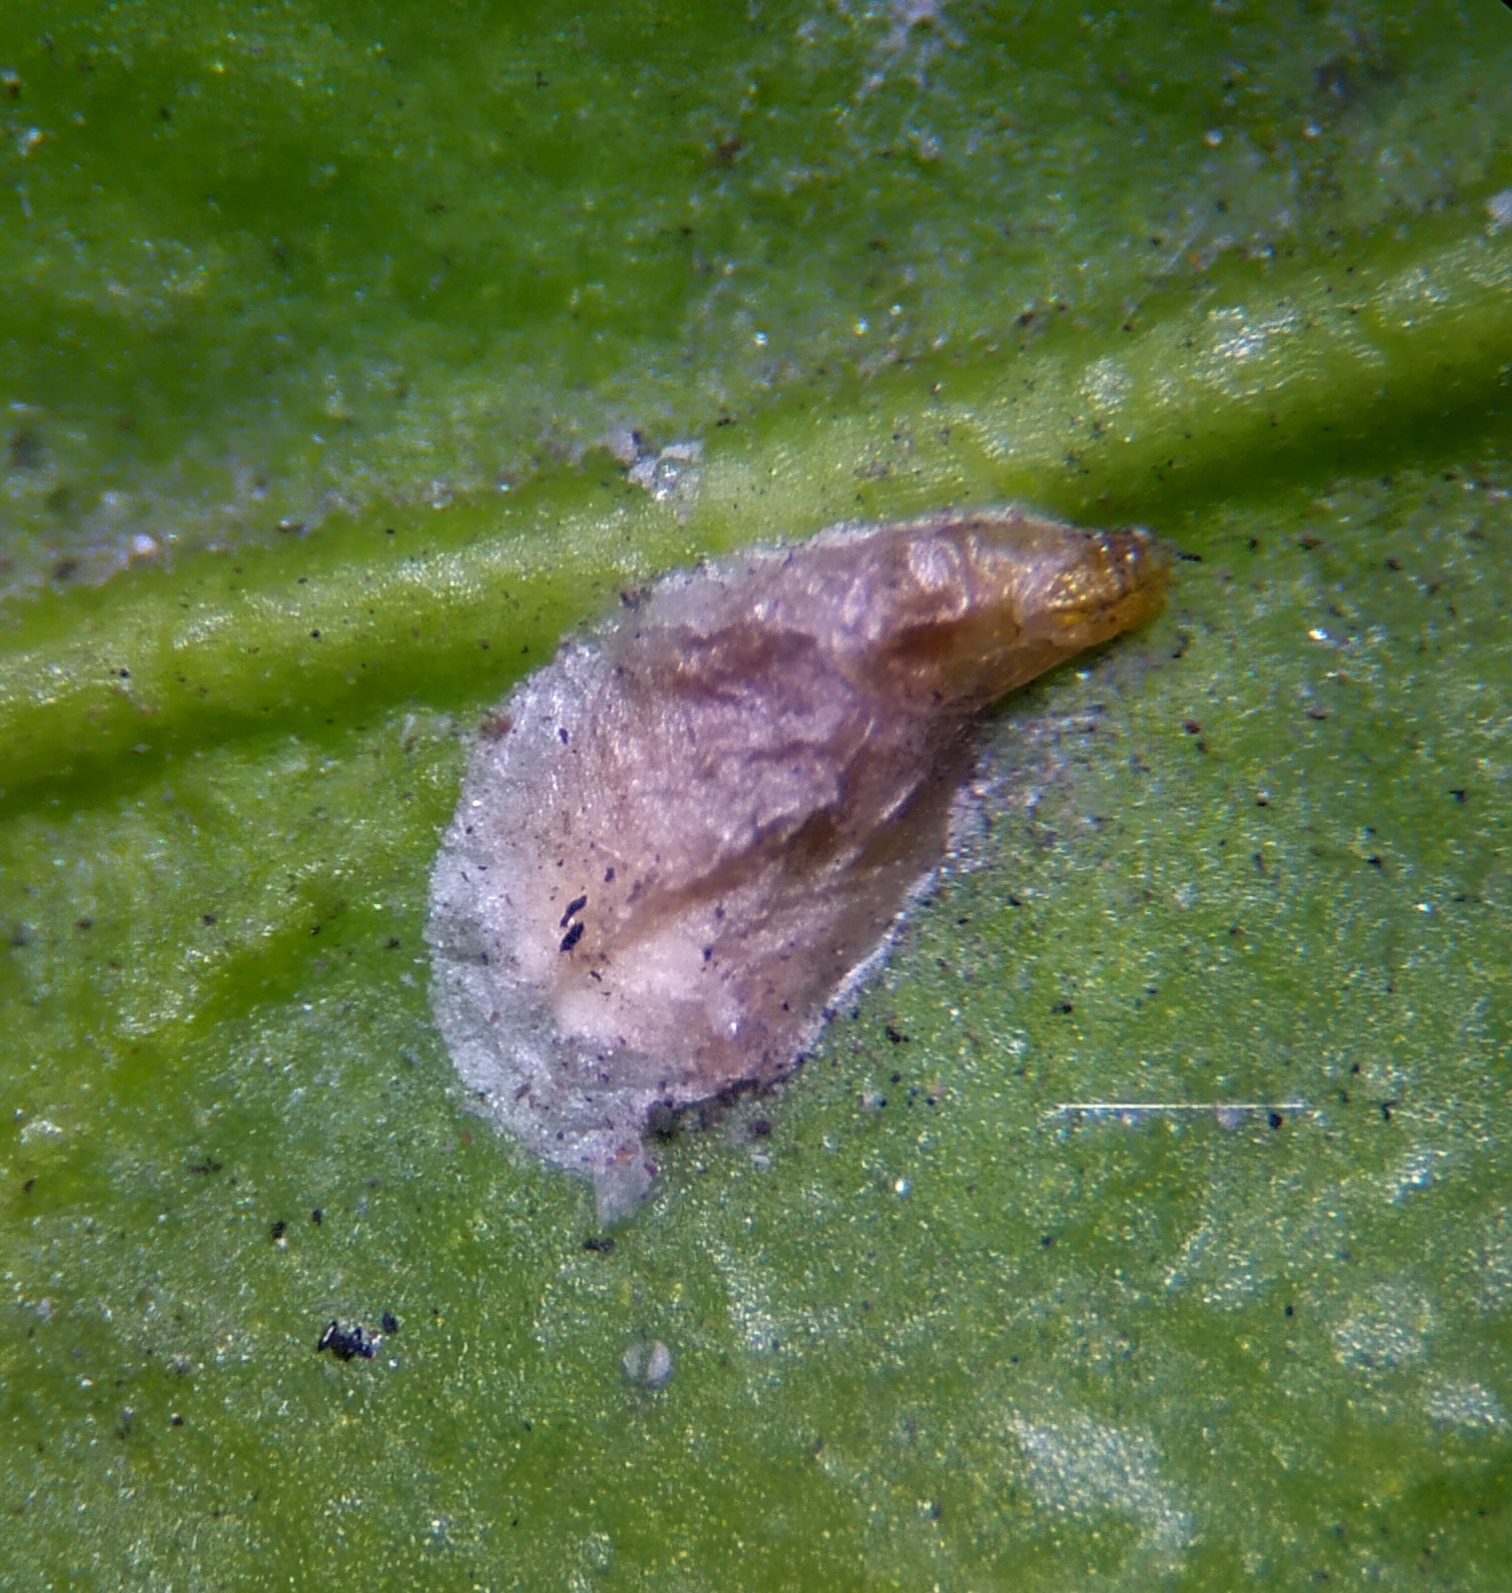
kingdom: Animalia
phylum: Arthropoda
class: Insecta
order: Hemiptera
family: Diaspididae
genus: Unaspis
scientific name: Unaspis euonymi
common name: Euonymus scale
